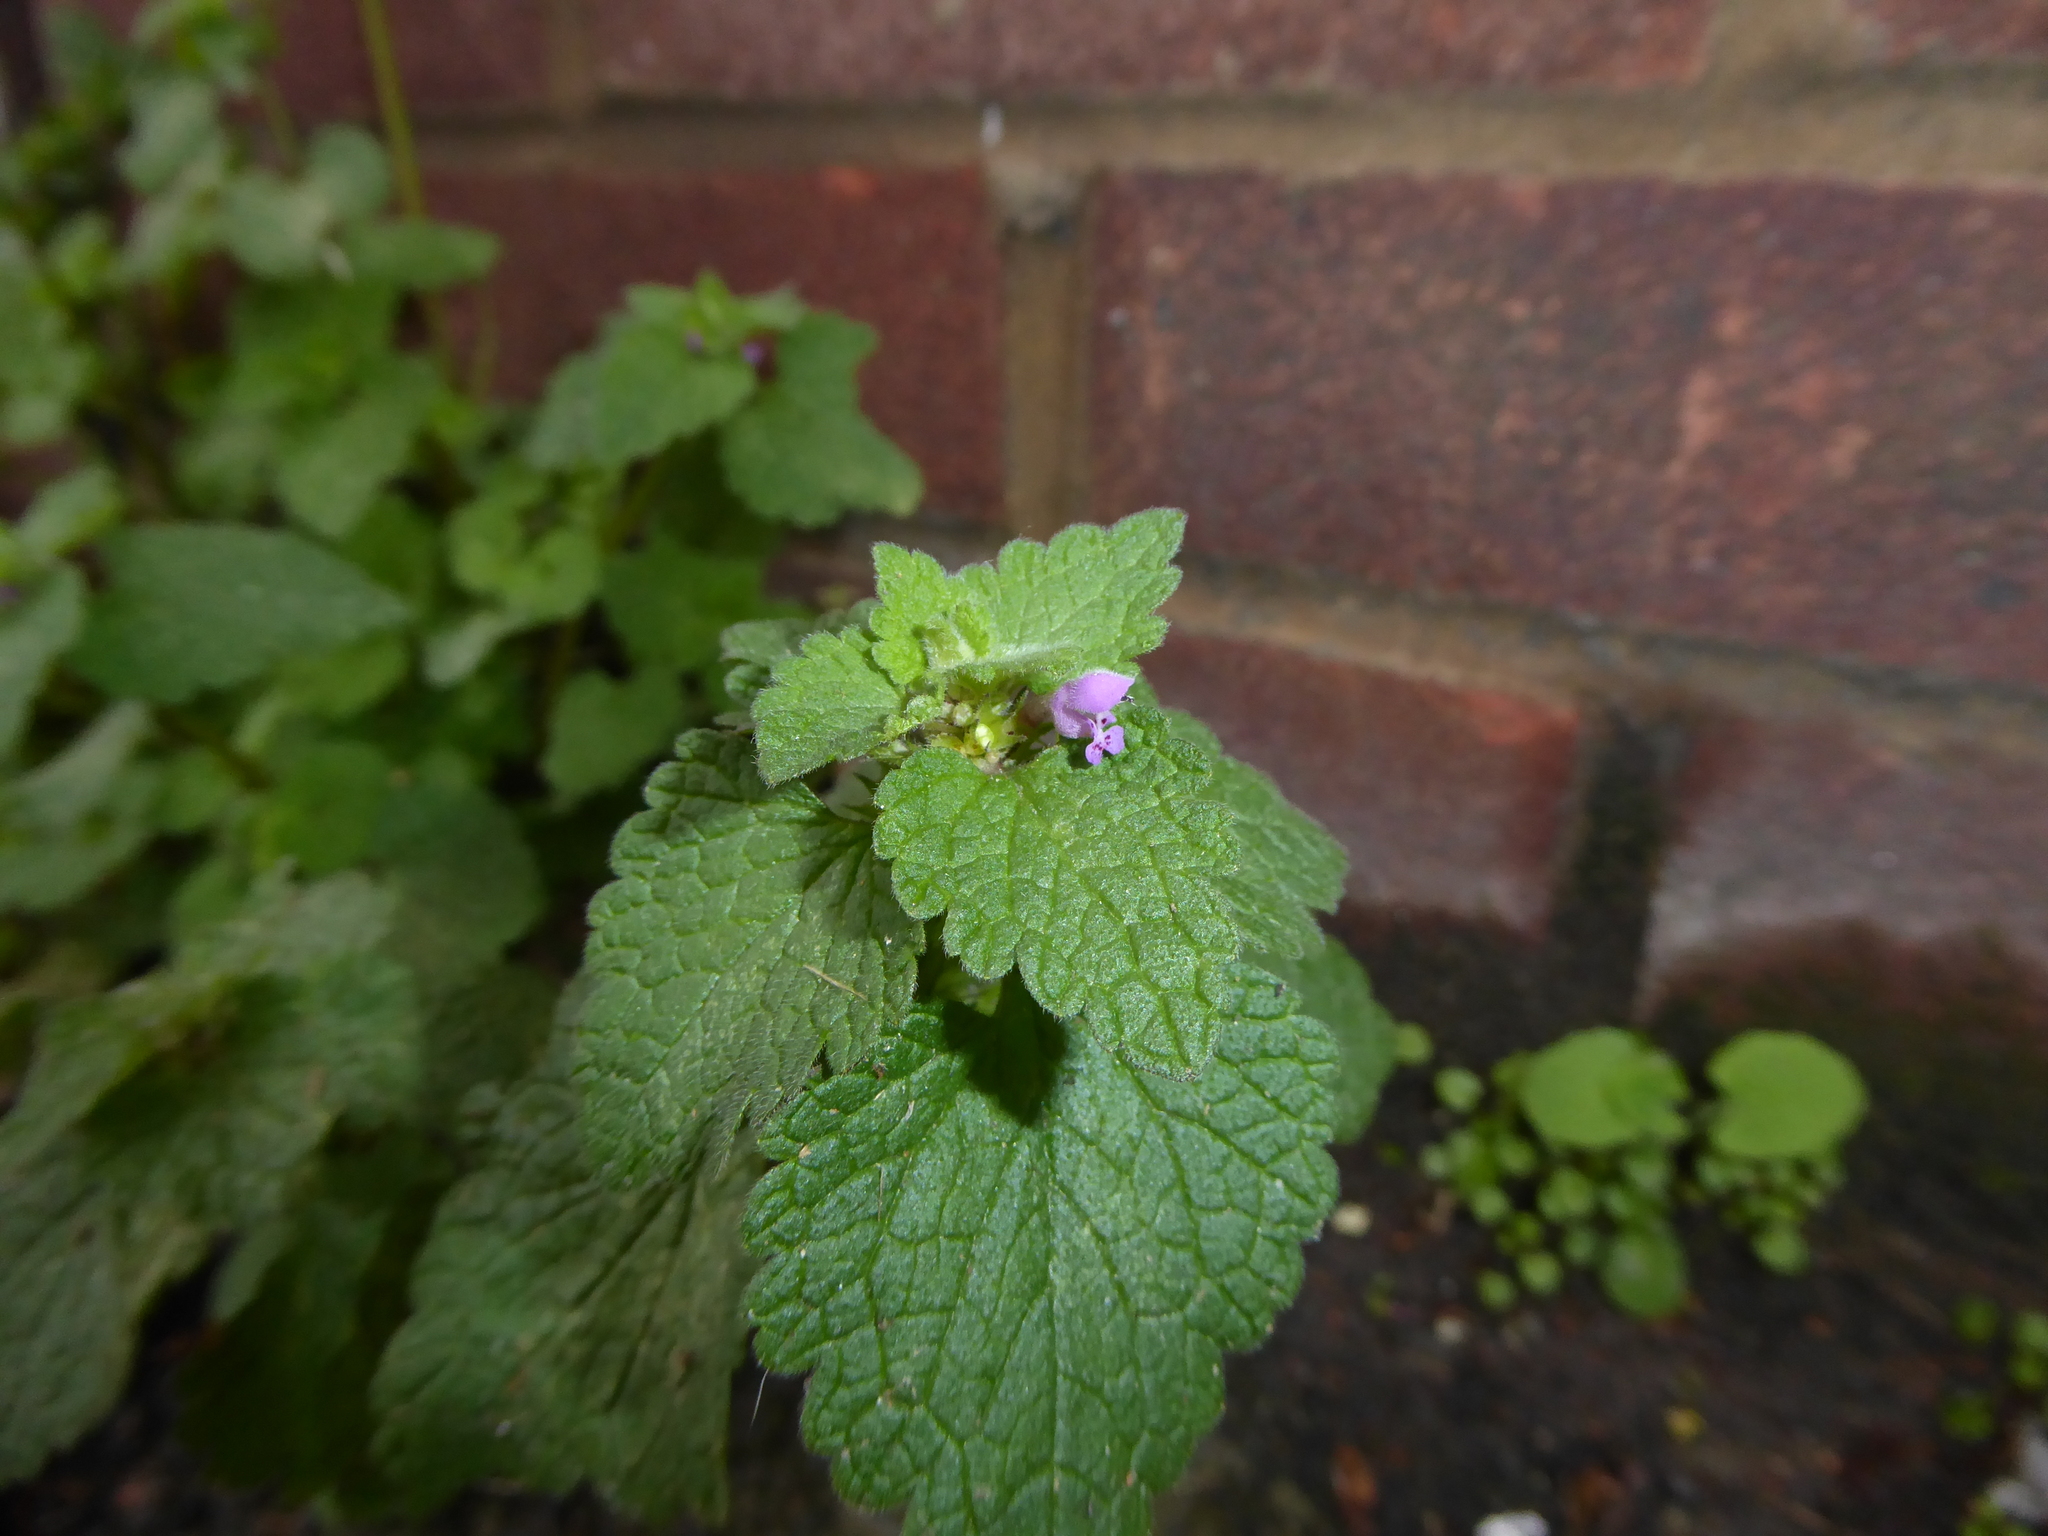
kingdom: Plantae
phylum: Tracheophyta
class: Magnoliopsida
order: Lamiales
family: Lamiaceae
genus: Lamium
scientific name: Lamium purpureum
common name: Red dead-nettle
